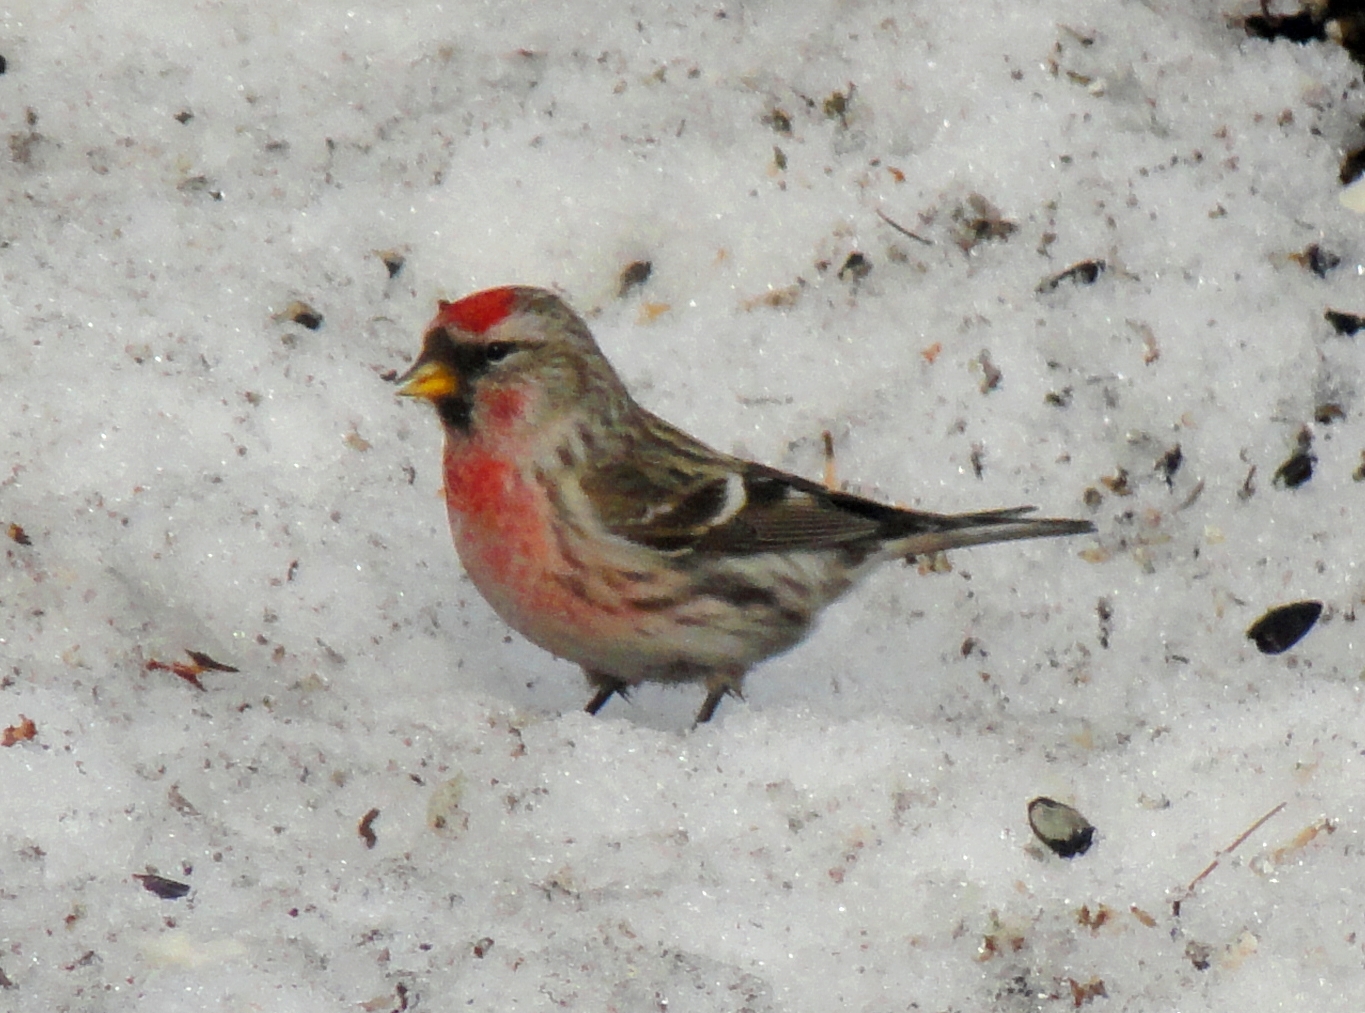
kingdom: Animalia
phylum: Chordata
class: Aves
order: Passeriformes
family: Fringillidae
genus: Acanthis
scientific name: Acanthis flammea
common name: Common redpoll
